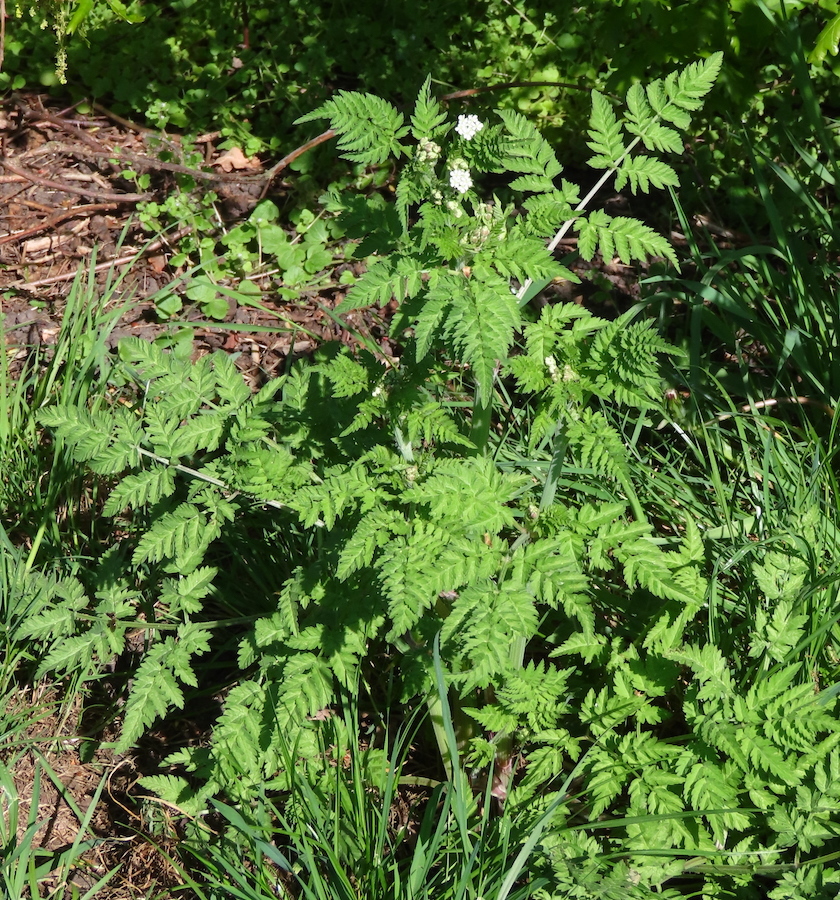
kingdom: Plantae
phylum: Tracheophyta
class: Magnoliopsida
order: Apiales
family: Apiaceae
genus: Anthriscus
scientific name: Anthriscus sylvestris
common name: Cow parsley
